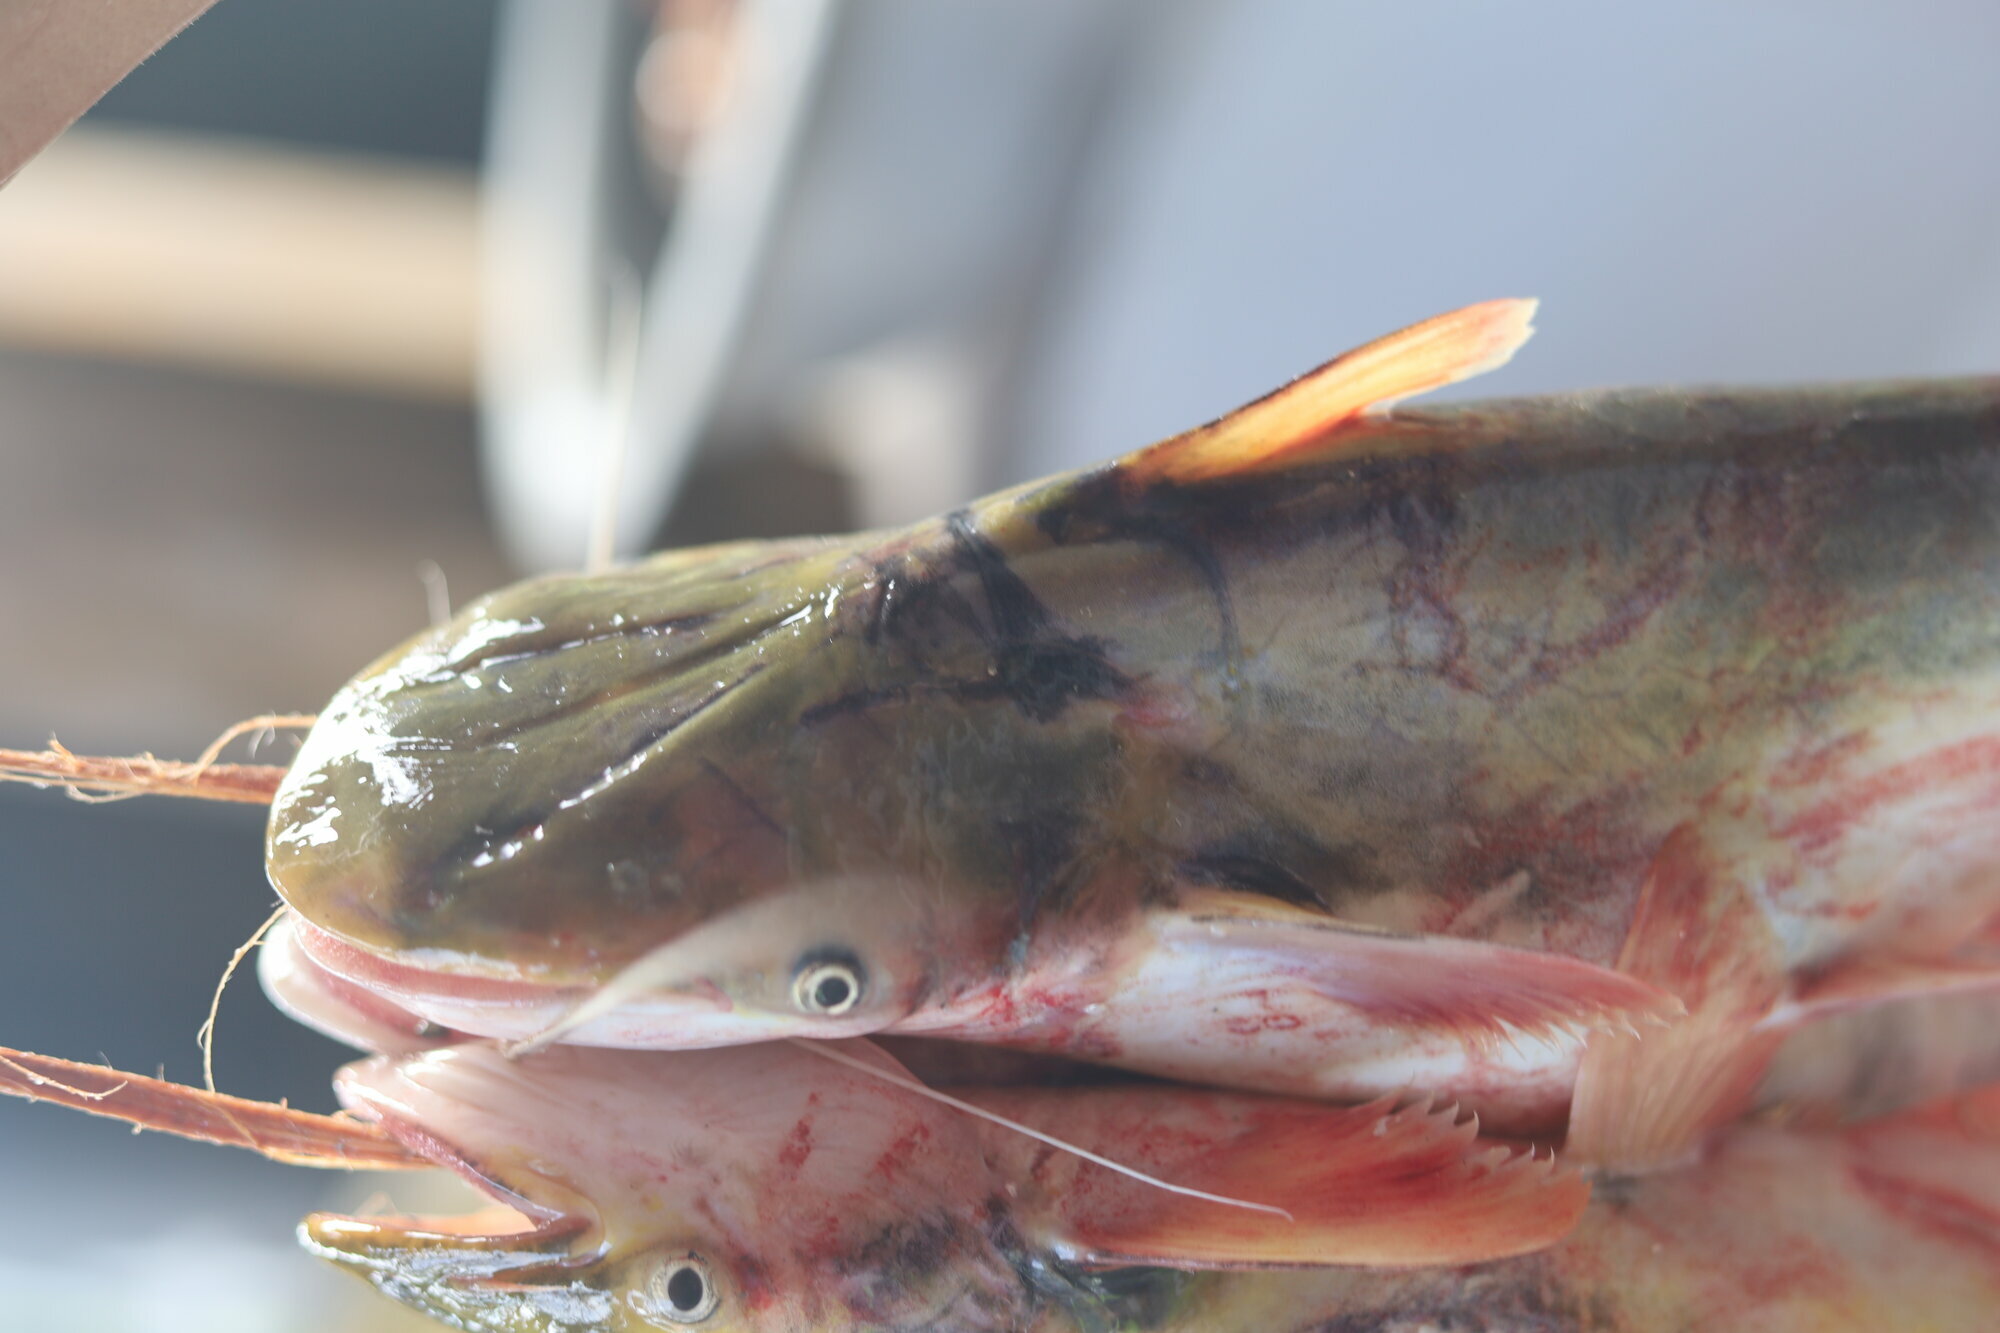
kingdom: Animalia
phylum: Chordata
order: Siluriformes
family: Pimelodidae
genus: Brachyplatystoma
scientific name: Brachyplatystoma tigrinum
